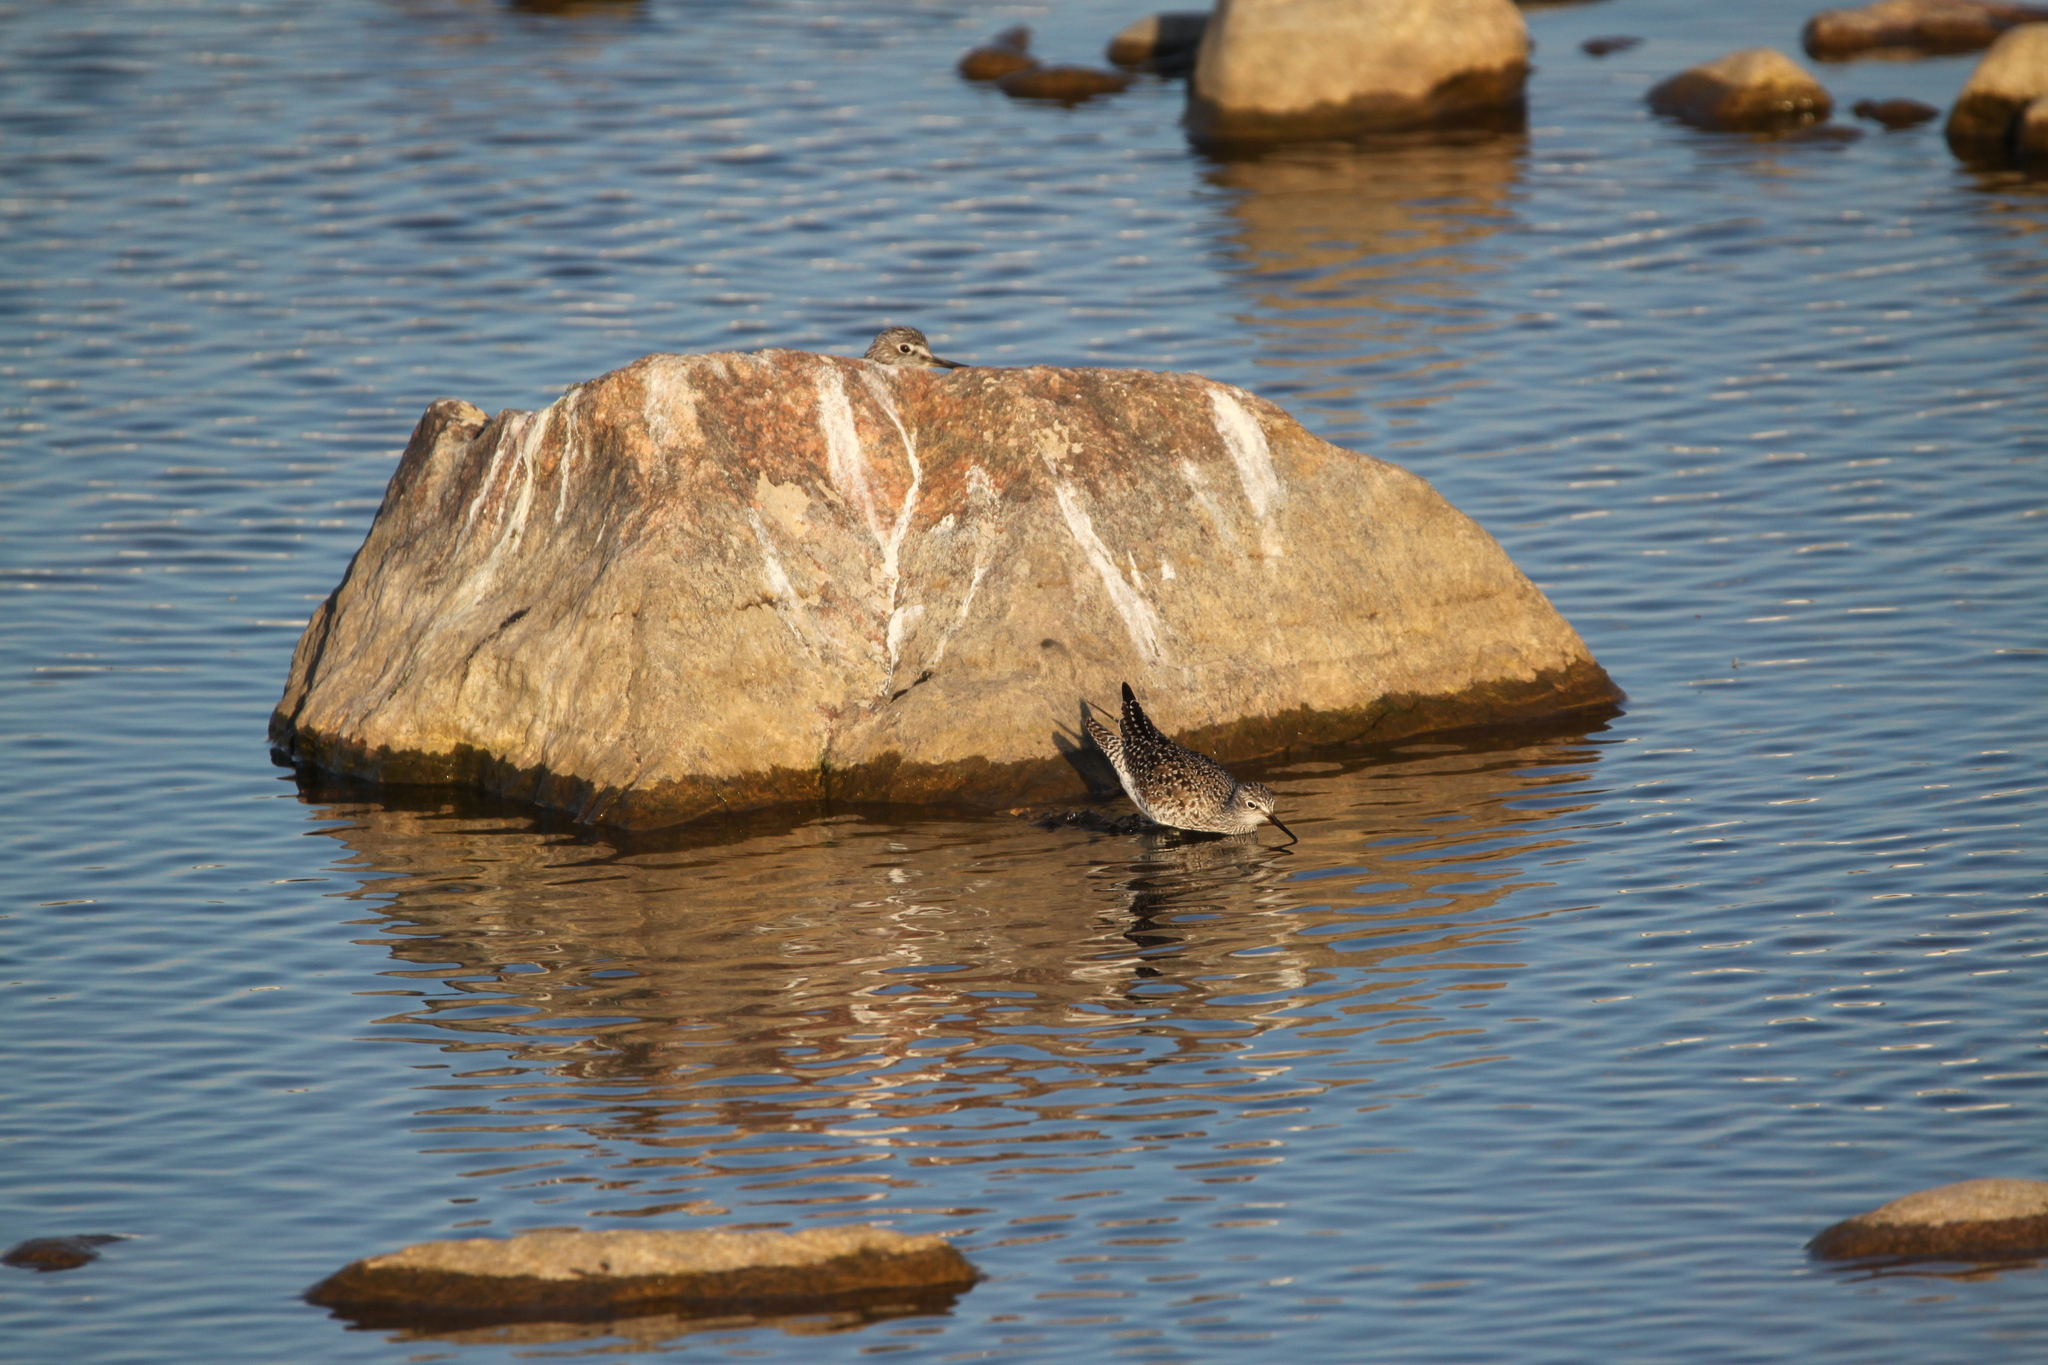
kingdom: Animalia
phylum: Chordata
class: Aves
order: Charadriiformes
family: Scolopacidae
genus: Tringa
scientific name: Tringa flavipes
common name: Lesser yellowlegs
